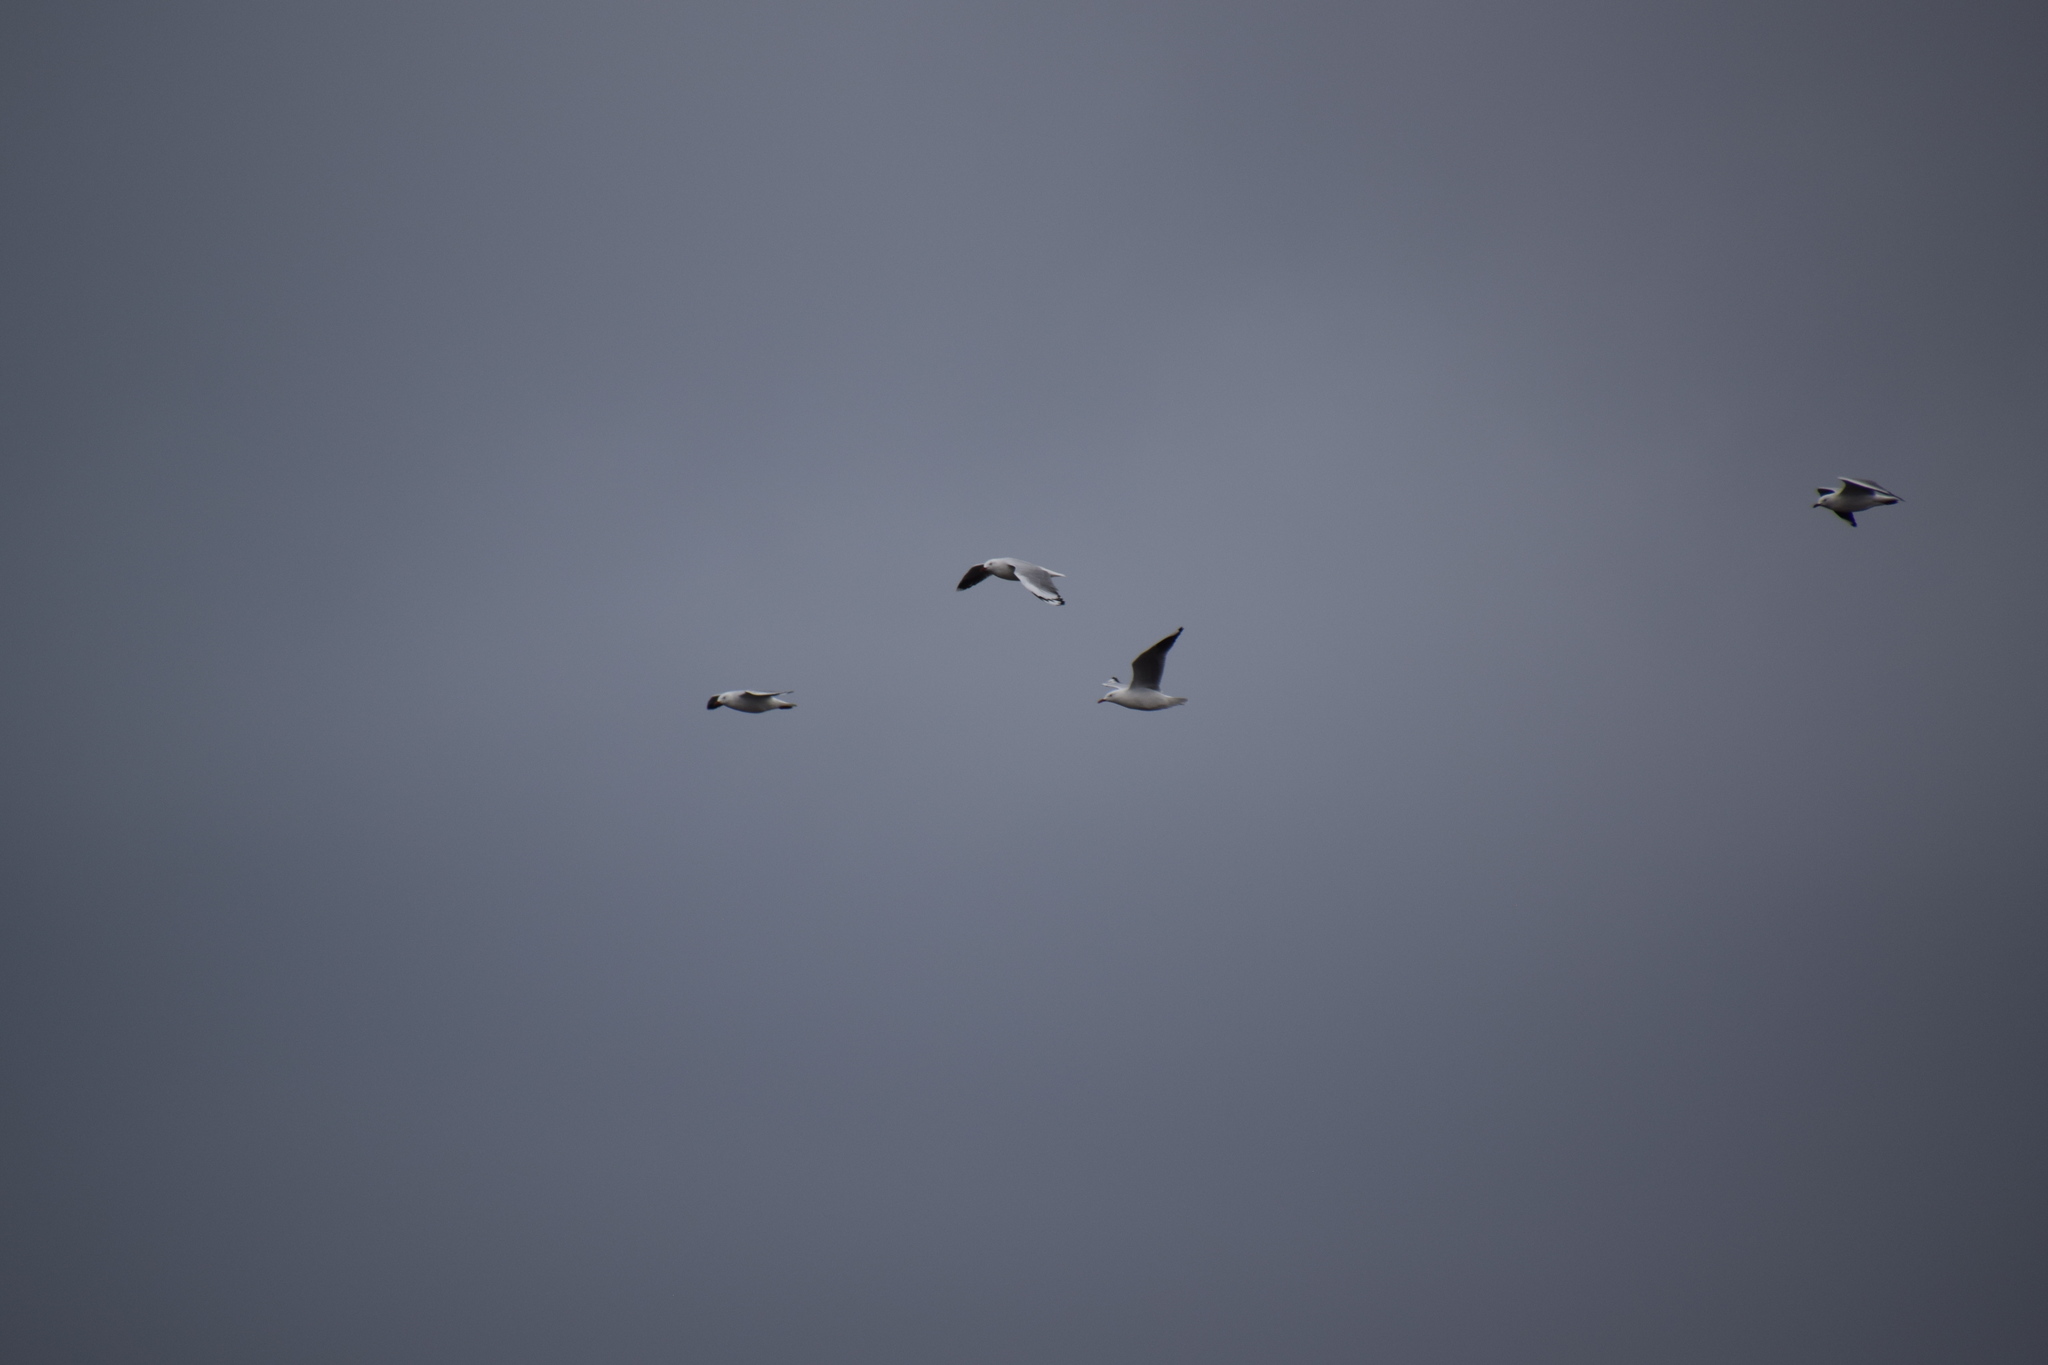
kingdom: Animalia
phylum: Chordata
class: Aves
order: Charadriiformes
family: Laridae
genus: Chroicocephalus
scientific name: Chroicocephalus novaehollandiae
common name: Silver gull
